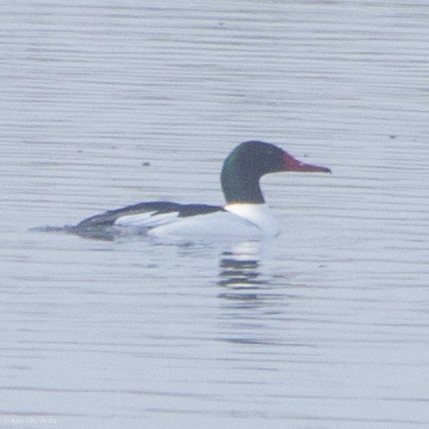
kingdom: Animalia
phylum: Chordata
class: Aves
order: Anseriformes
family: Anatidae
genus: Mergus
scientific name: Mergus merganser
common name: Common merganser
